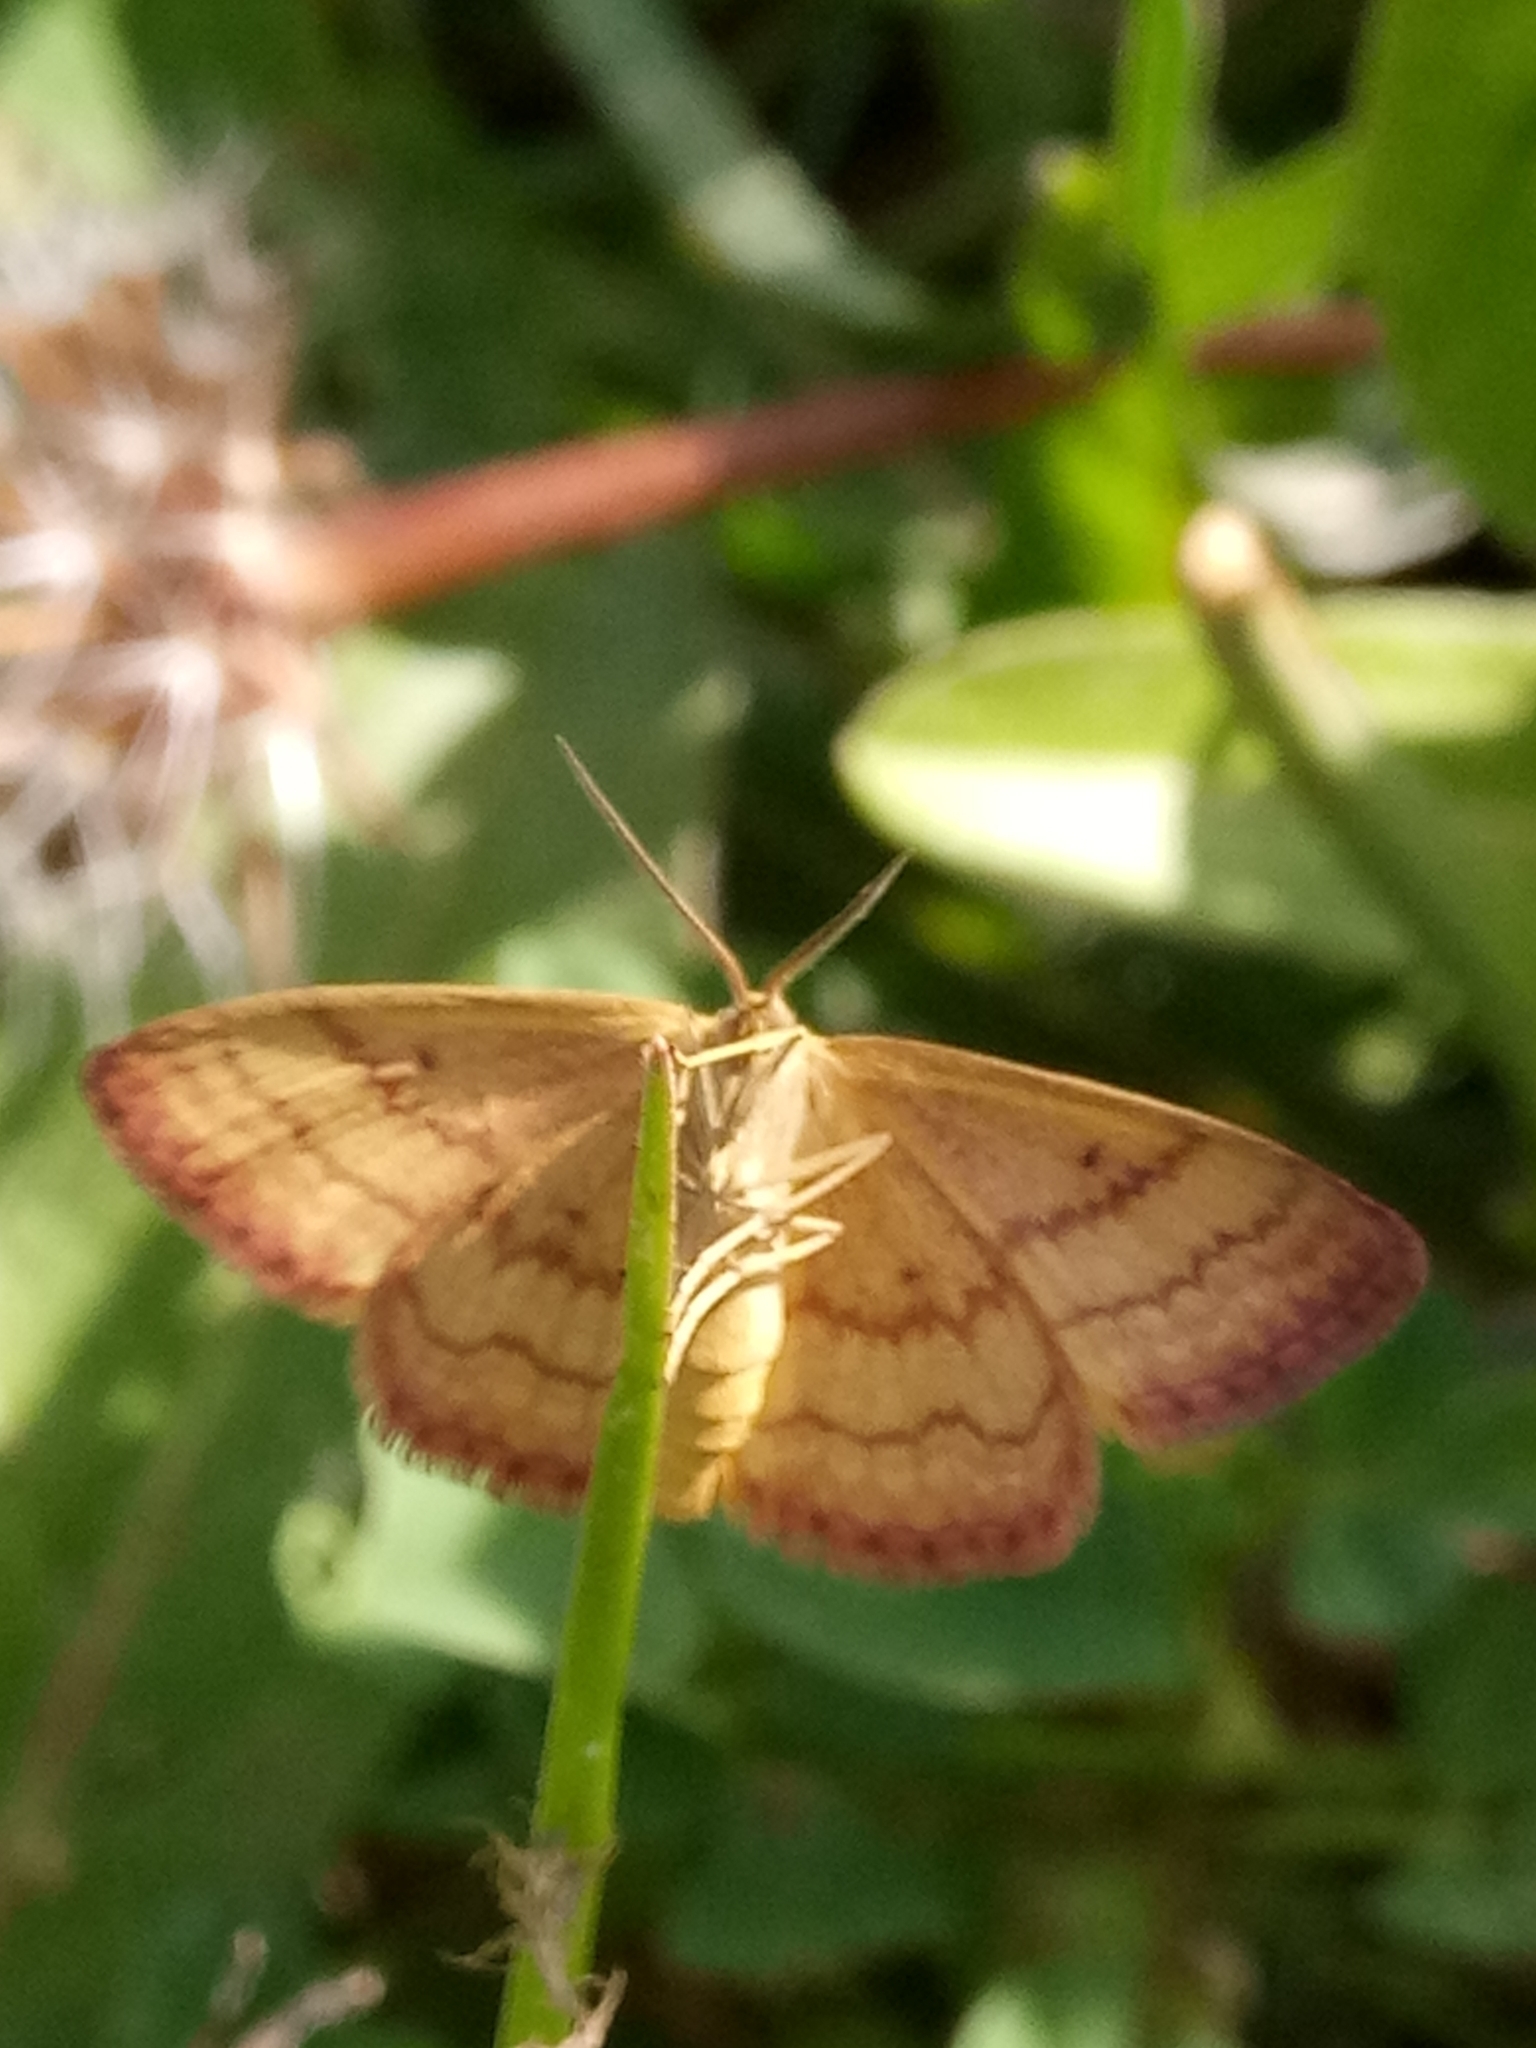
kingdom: Animalia
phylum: Arthropoda
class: Insecta
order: Lepidoptera
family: Geometridae
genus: Idaea
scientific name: Idaea numidaria
